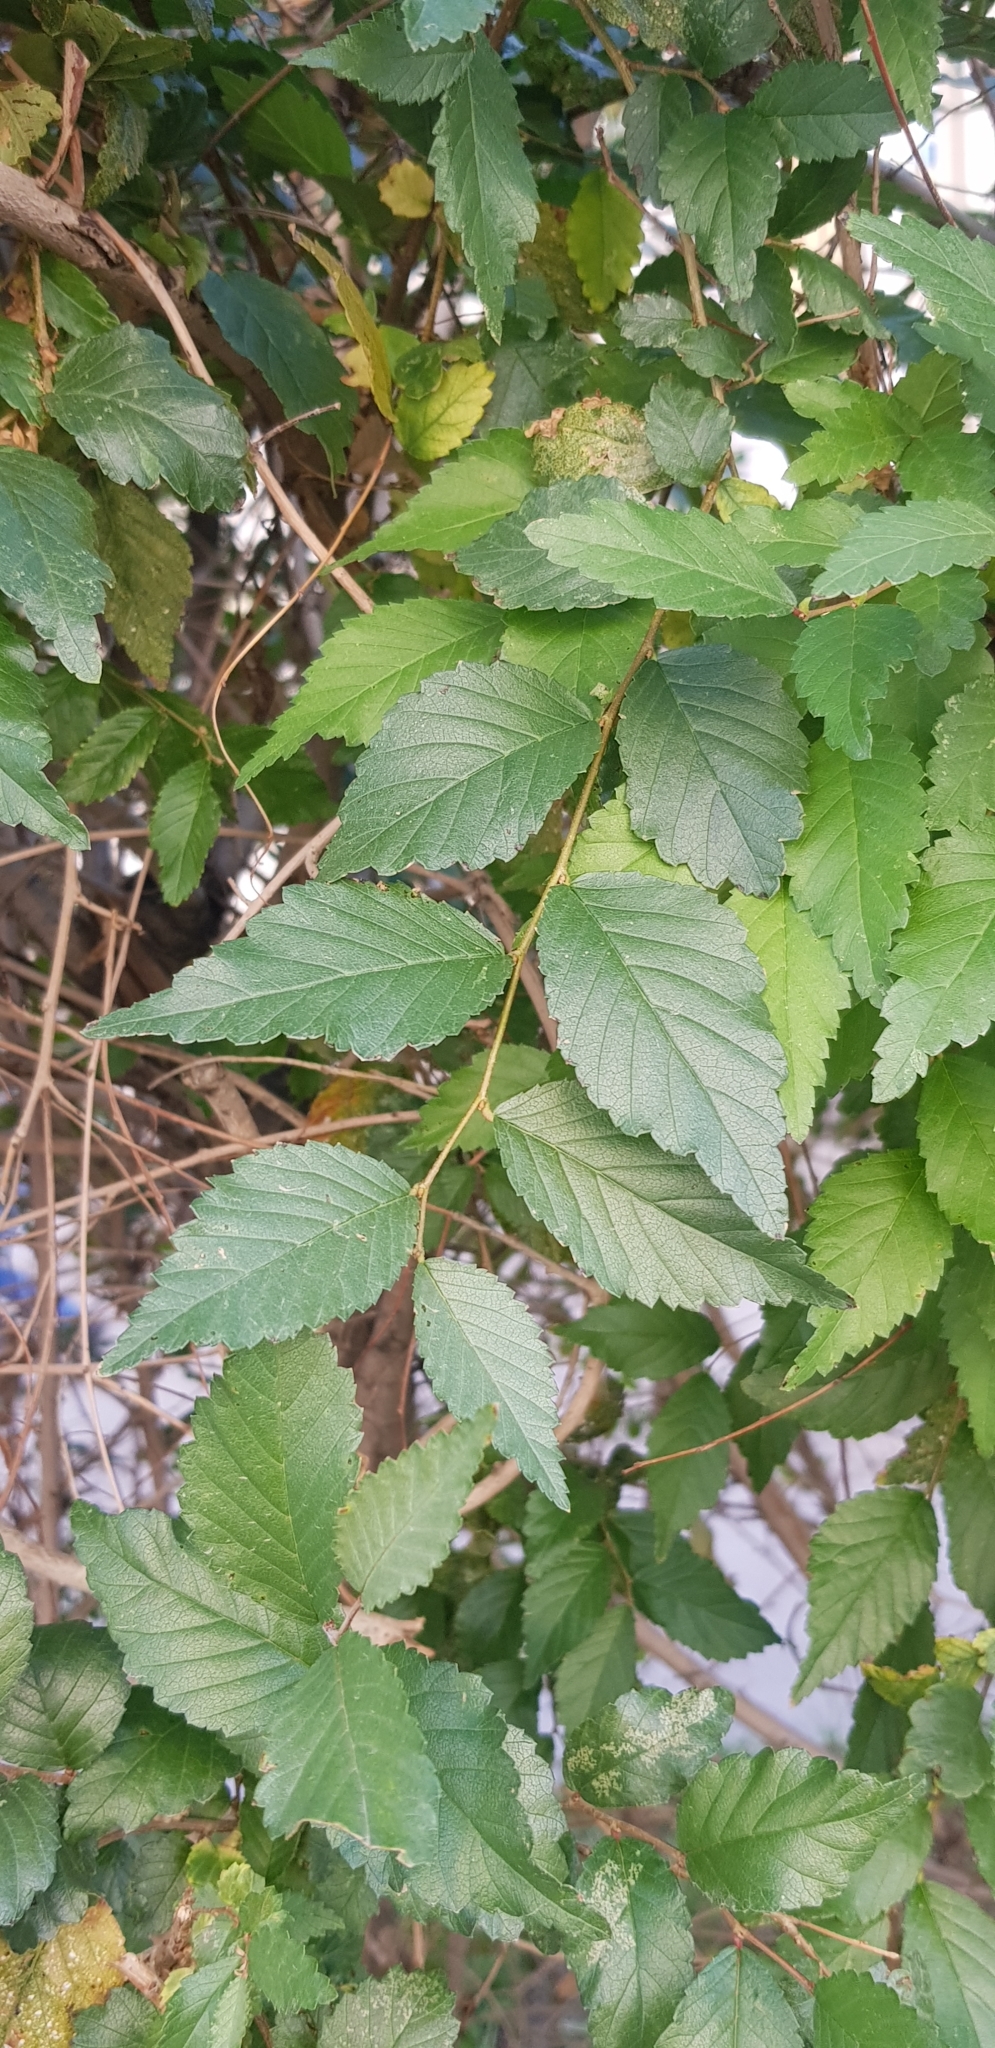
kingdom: Plantae
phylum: Tracheophyta
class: Magnoliopsida
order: Rosales
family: Ulmaceae
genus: Ulmus
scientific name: Ulmus pumila
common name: Siberian elm
